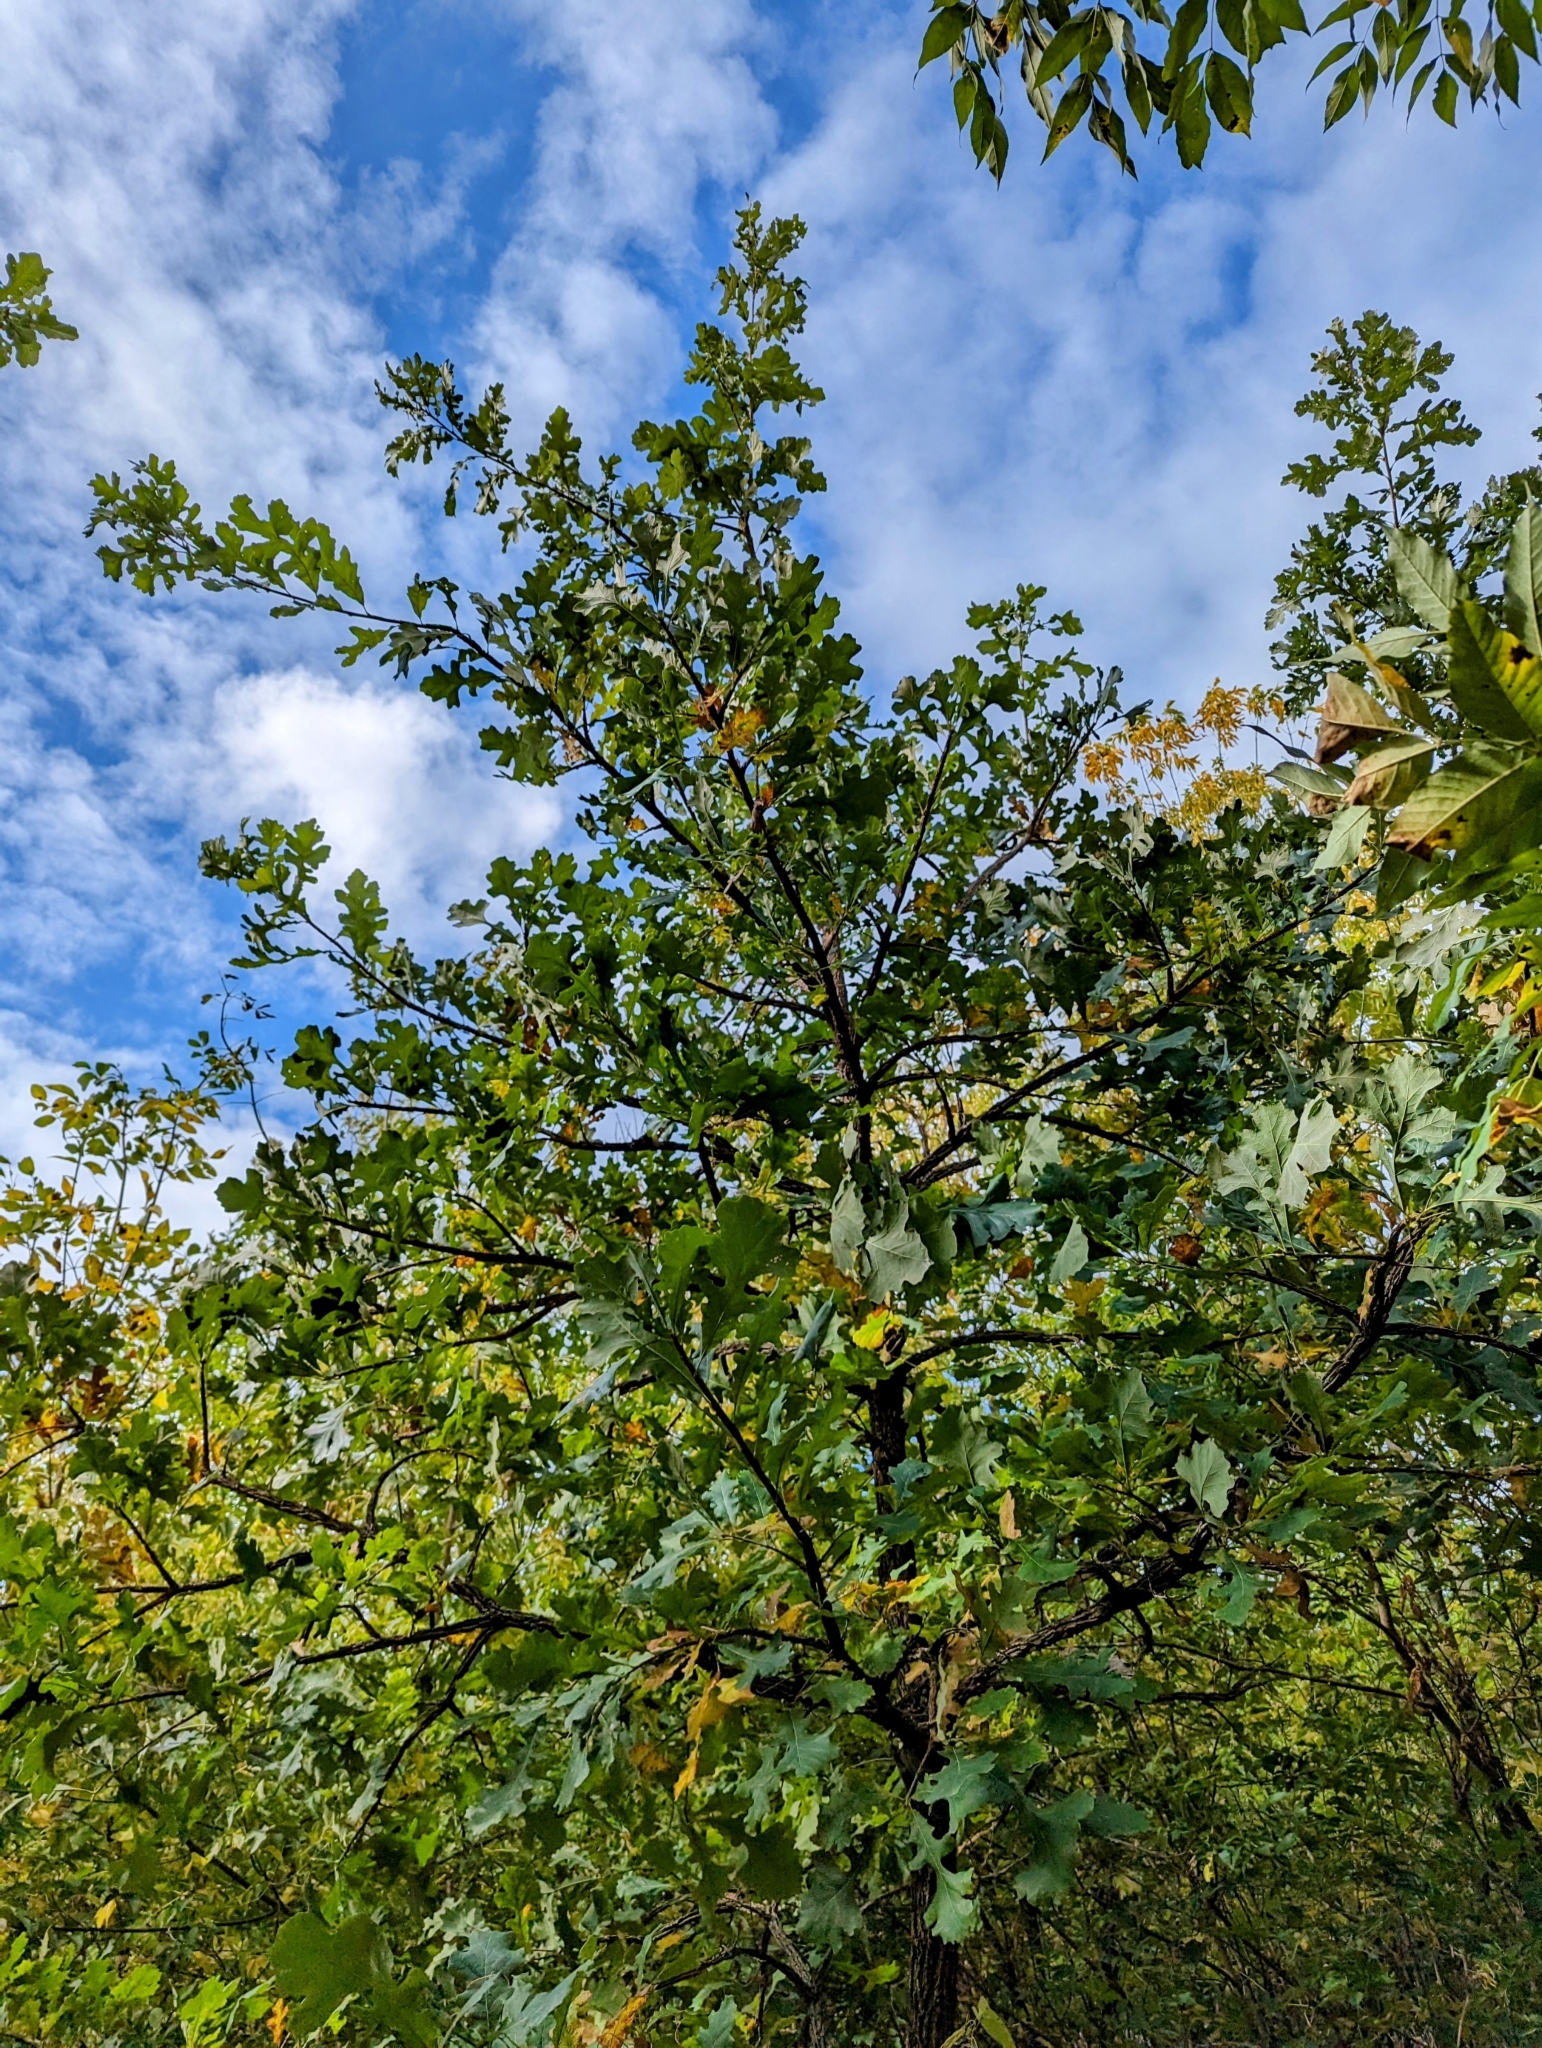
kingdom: Plantae
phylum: Tracheophyta
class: Magnoliopsida
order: Fagales
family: Fagaceae
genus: Quercus
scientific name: Quercus macrocarpa
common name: Bur oak
